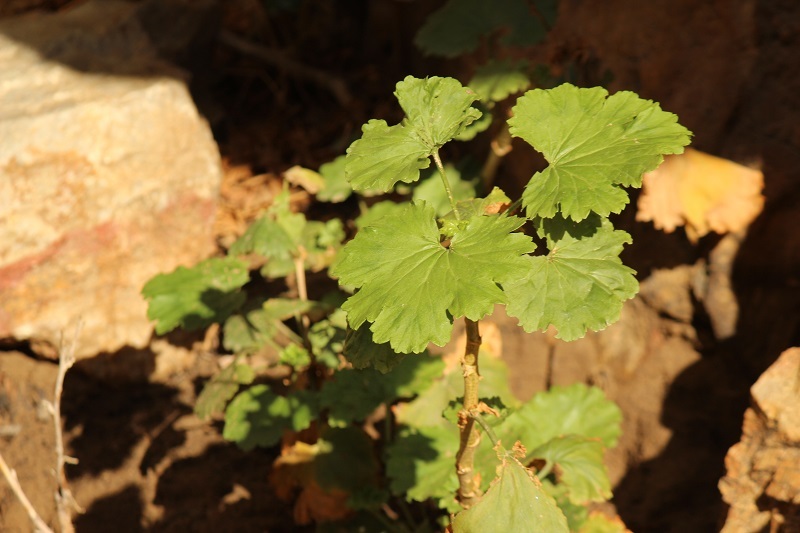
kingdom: Plantae
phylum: Tracheophyta
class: Magnoliopsida
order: Geraniales
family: Geraniaceae
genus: Pelargonium
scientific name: Pelargonium zonale
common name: Horseshoe geranium
